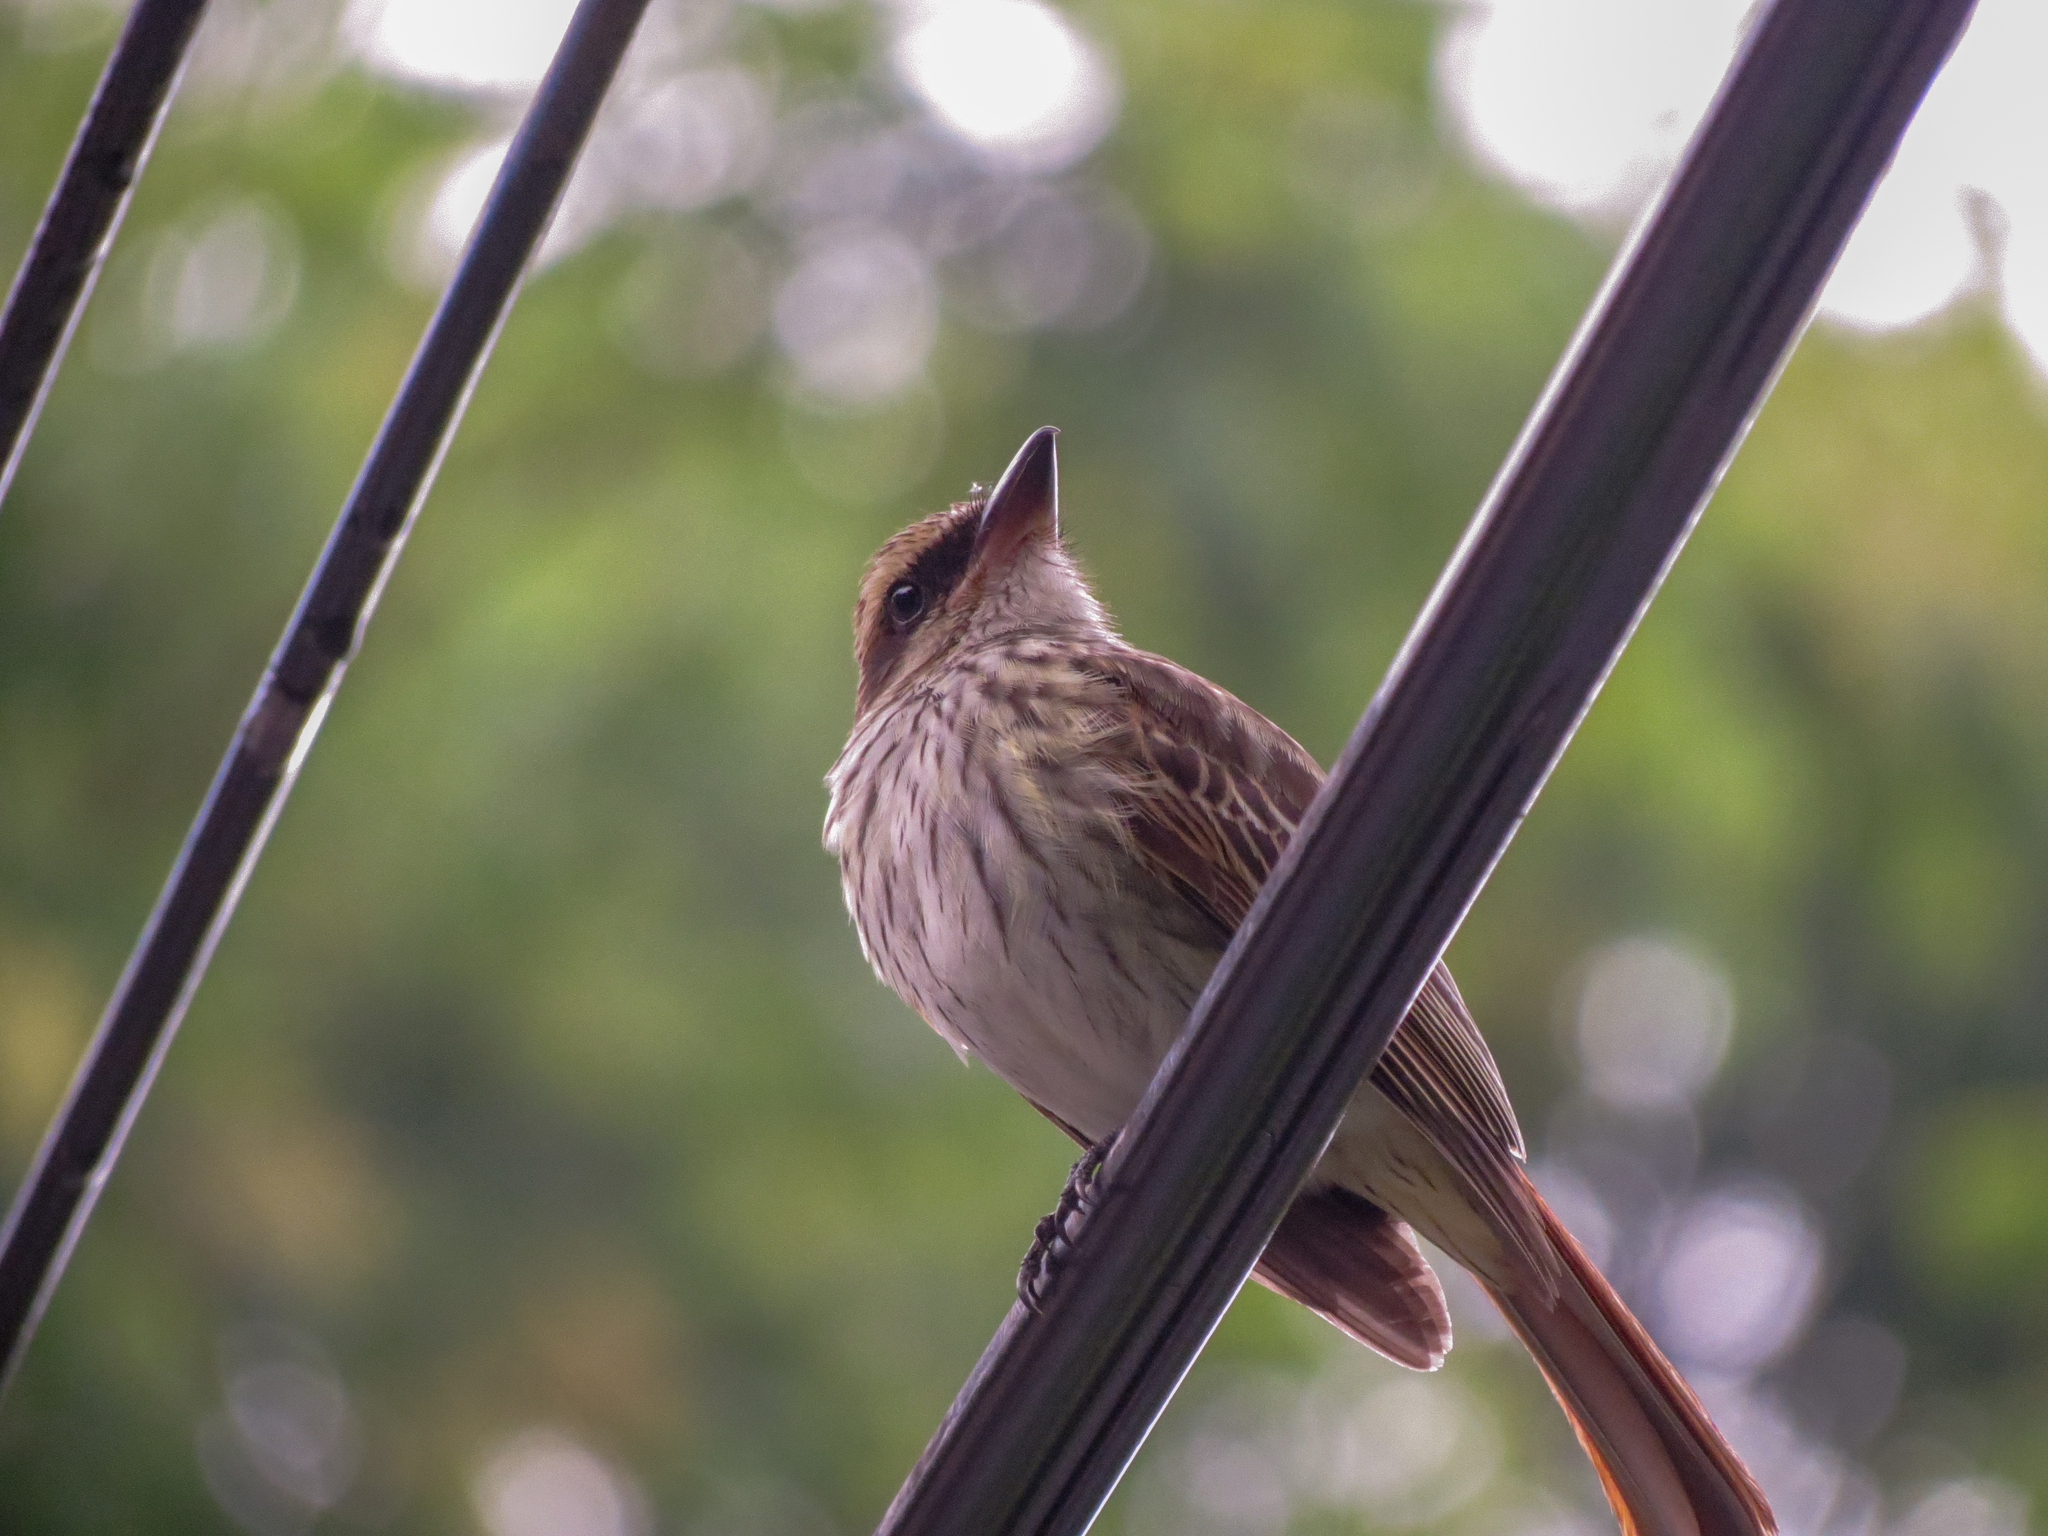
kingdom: Animalia
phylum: Chordata
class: Aves
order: Passeriformes
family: Tyrannidae
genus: Myiodynastes
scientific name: Myiodynastes maculatus
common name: Streaked flycatcher
